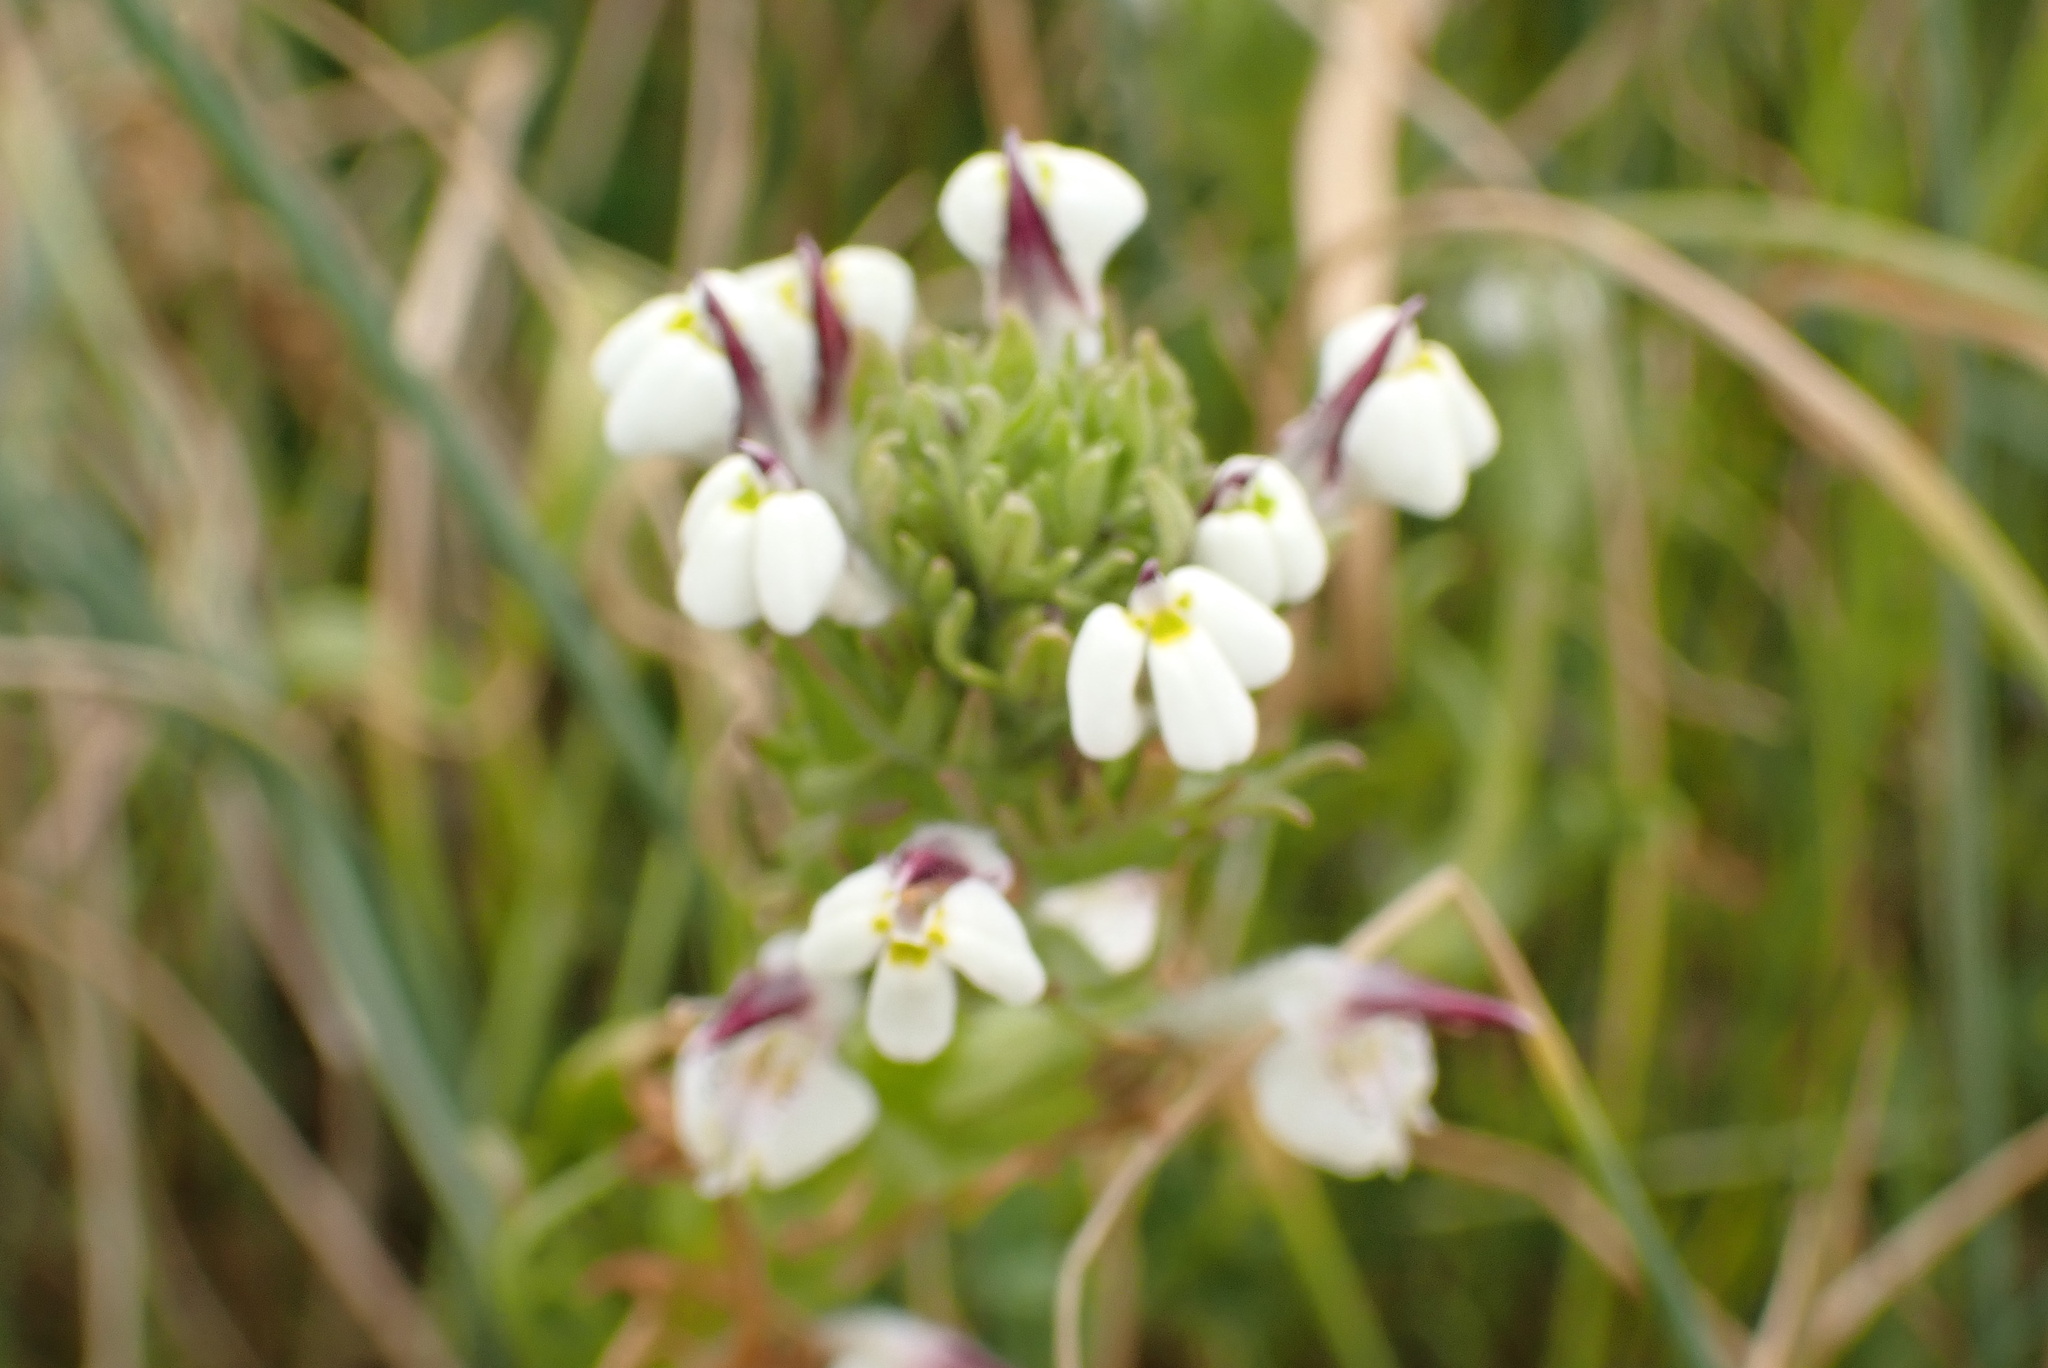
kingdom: Plantae
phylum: Tracheophyta
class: Magnoliopsida
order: Lamiales
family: Orobanchaceae
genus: Triphysaria
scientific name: Triphysaria versicolor
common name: Bearded false owl-clover
